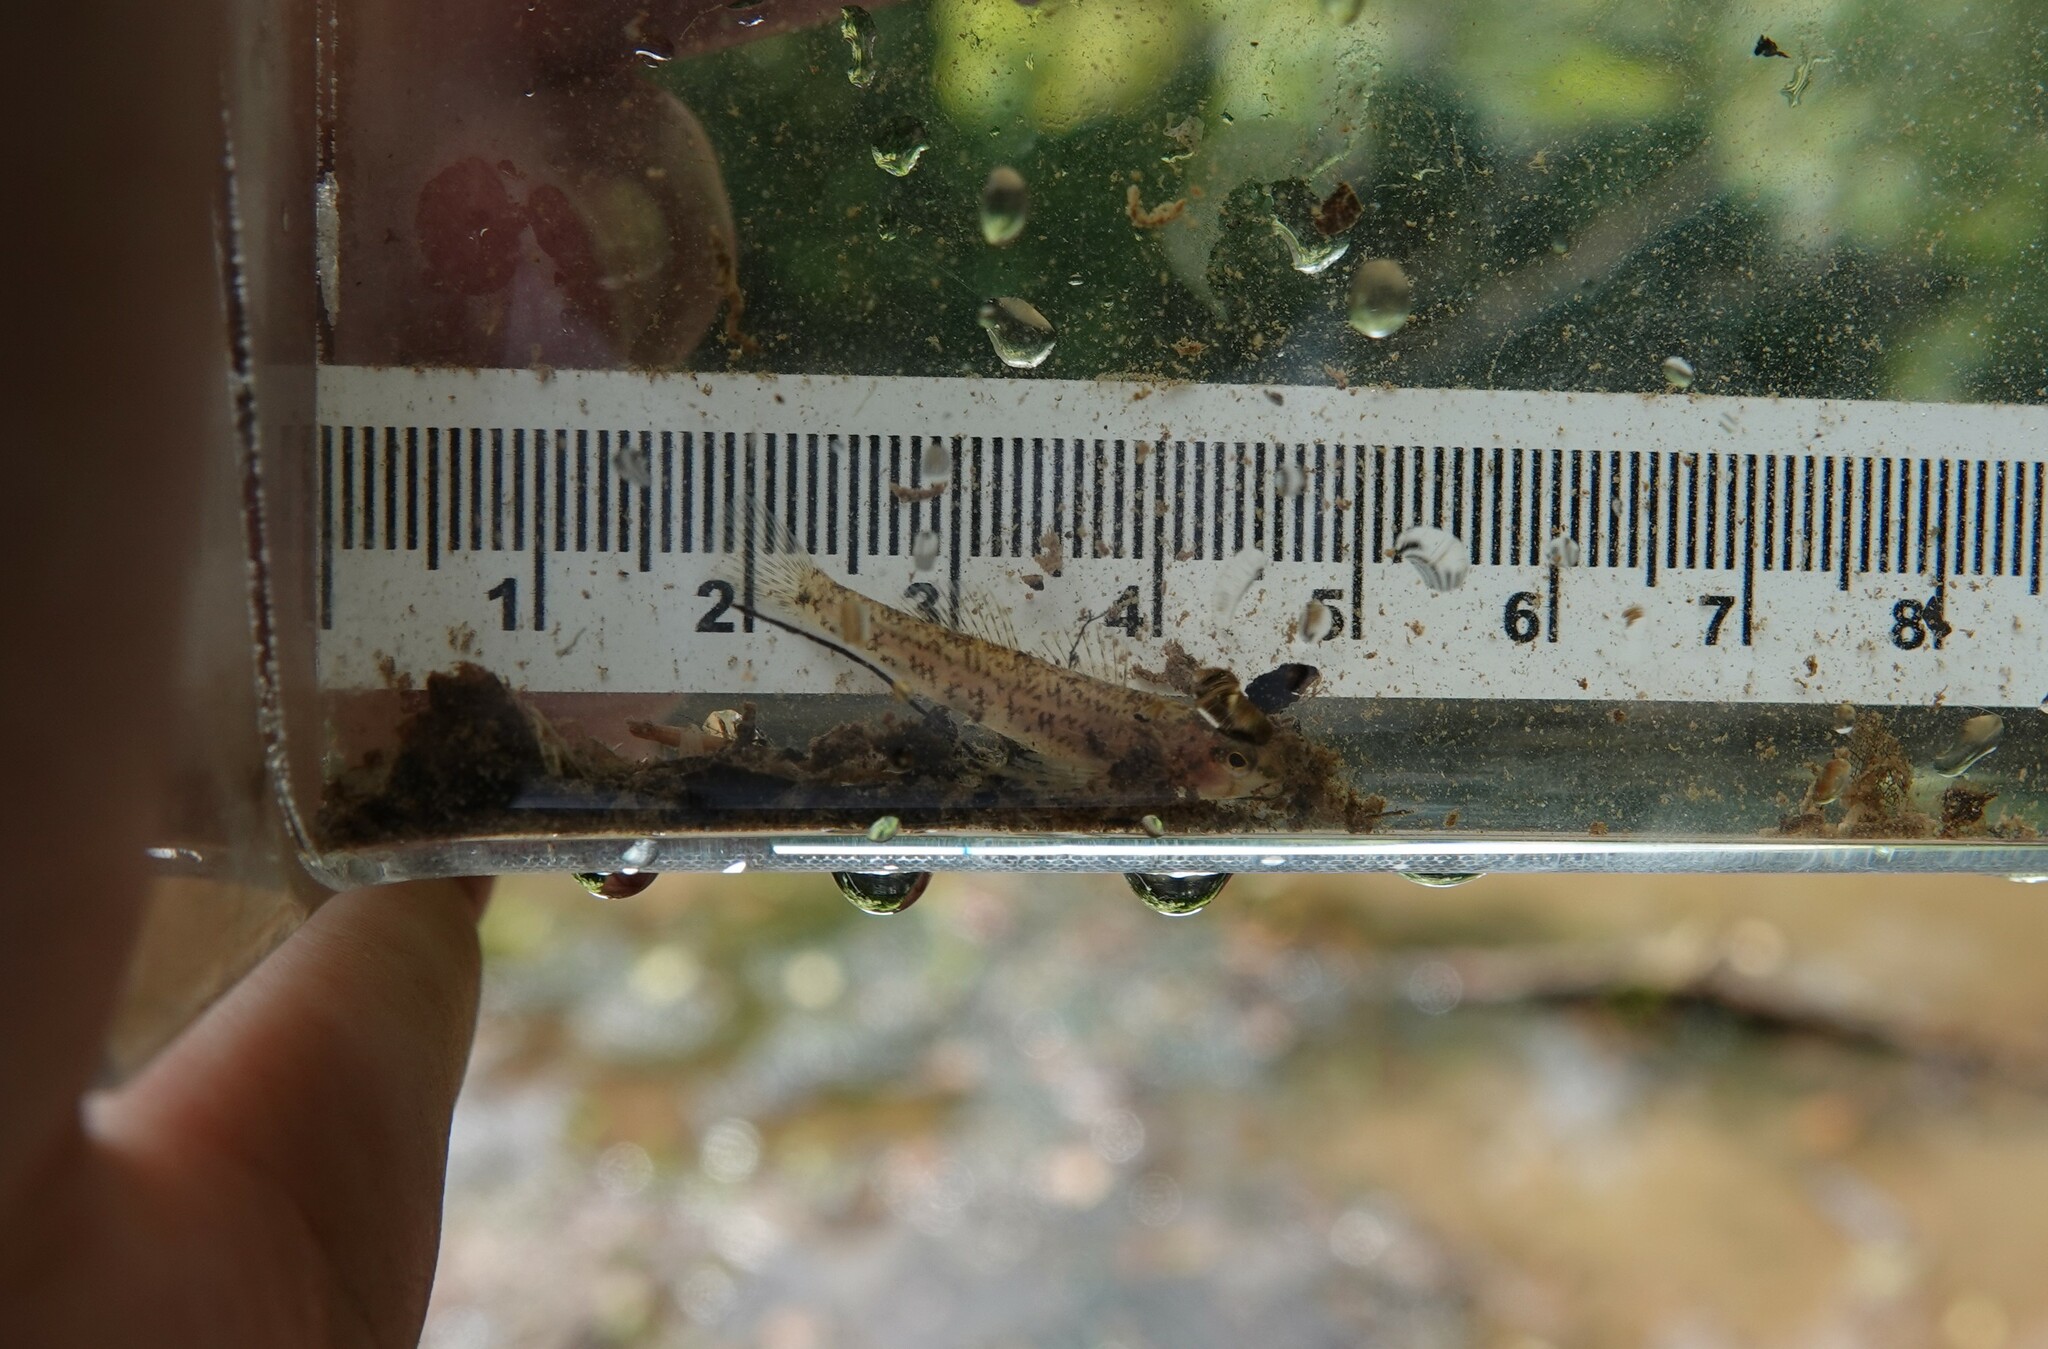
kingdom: Animalia
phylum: Chordata
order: Perciformes
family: Percidae
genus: Etheostoma
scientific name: Etheostoma olmstedi
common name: Tessellated darter
